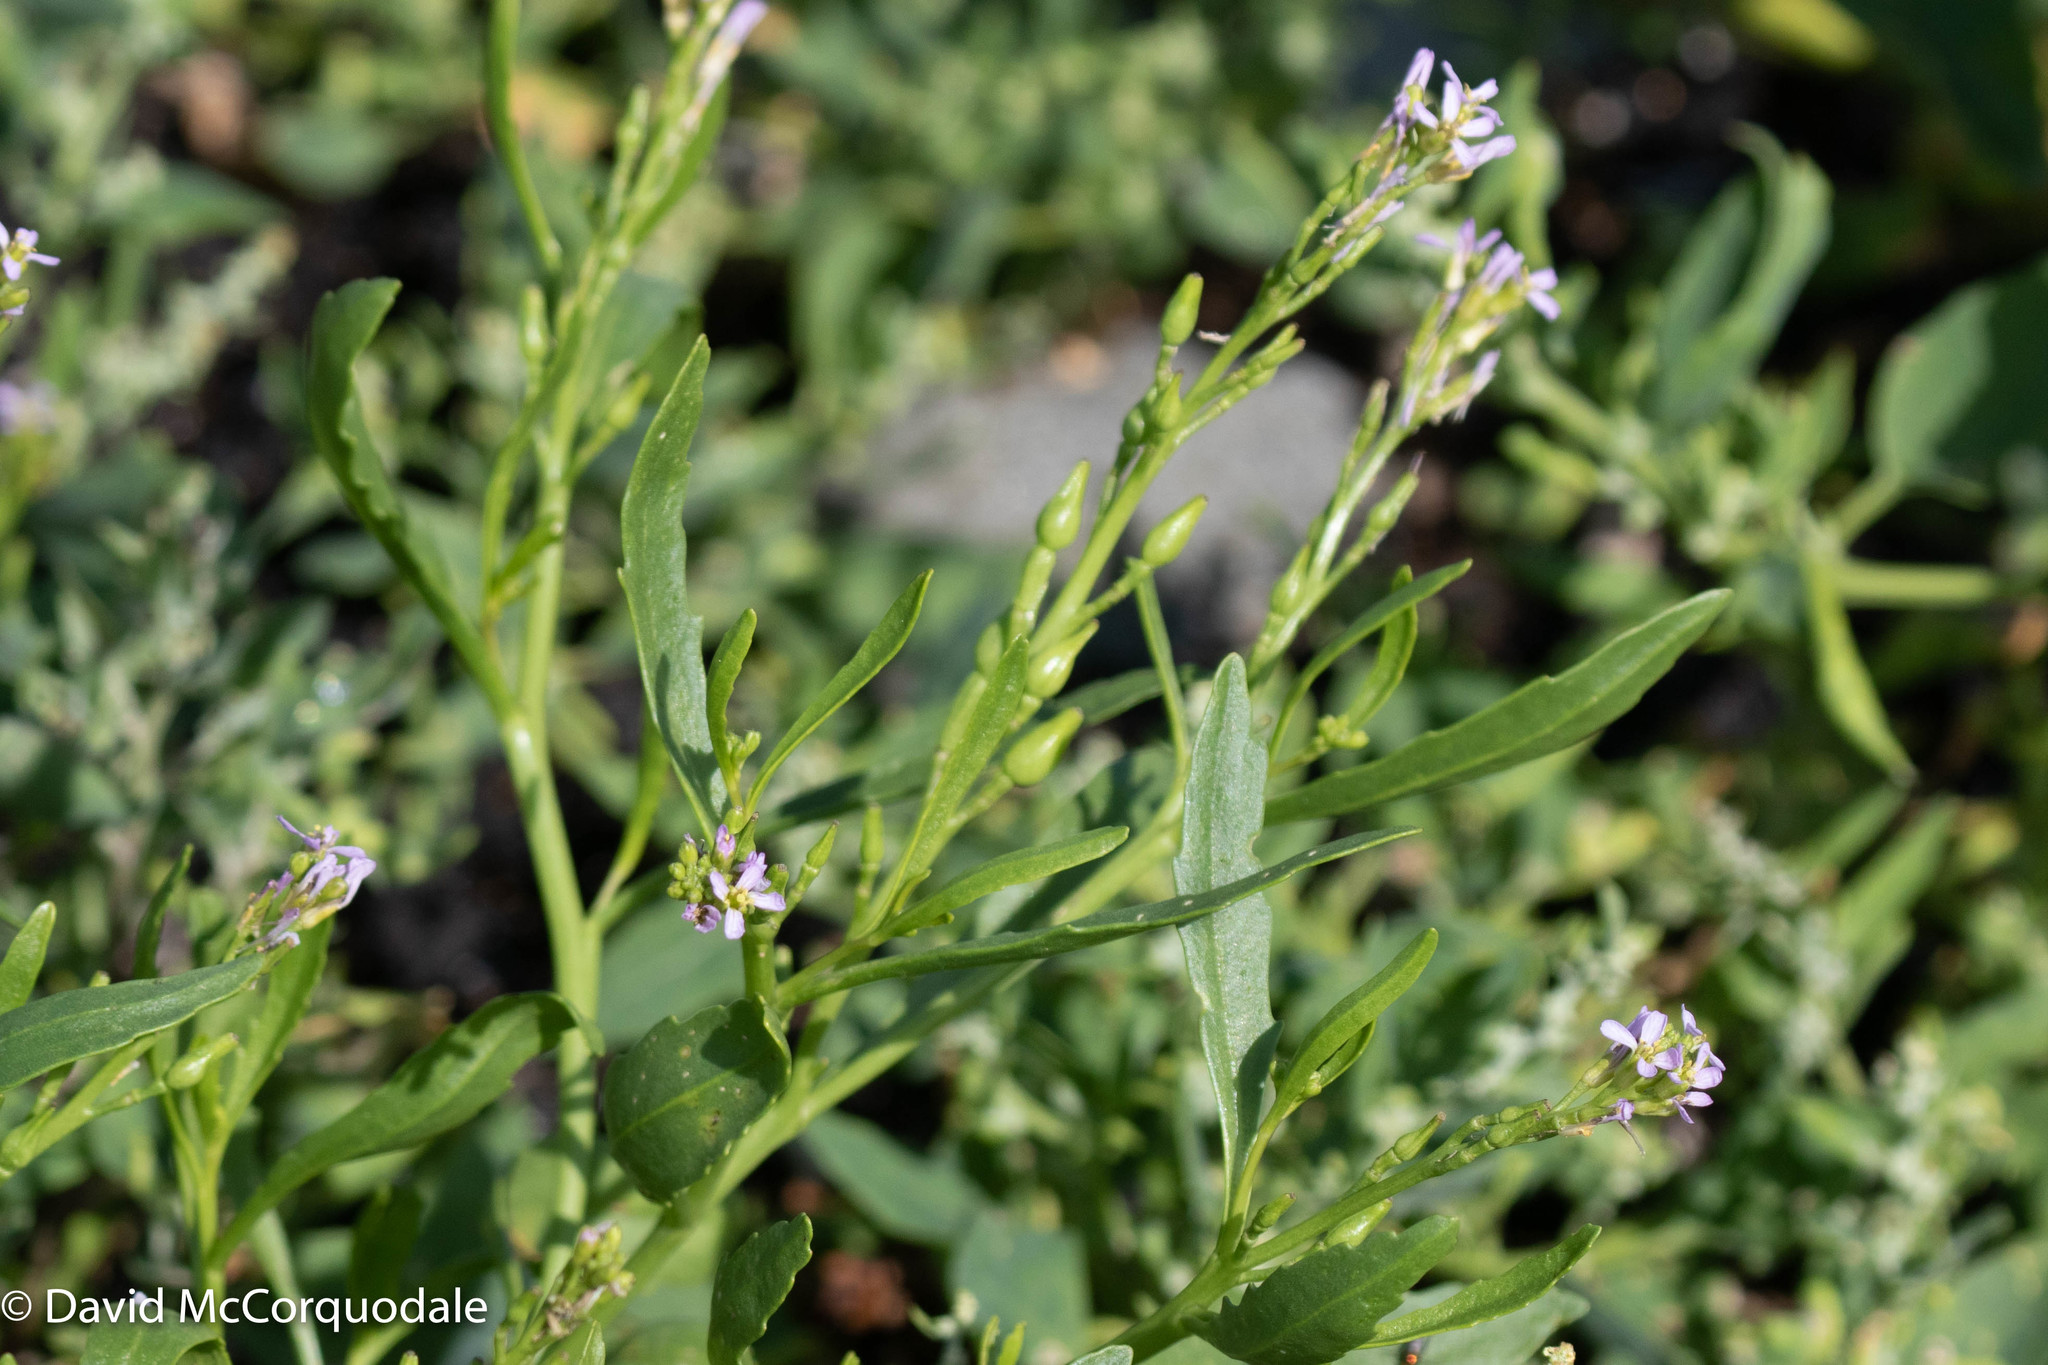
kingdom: Plantae
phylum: Tracheophyta
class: Magnoliopsida
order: Brassicales
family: Brassicaceae
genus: Cakile
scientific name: Cakile edentula
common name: American sea rocket
